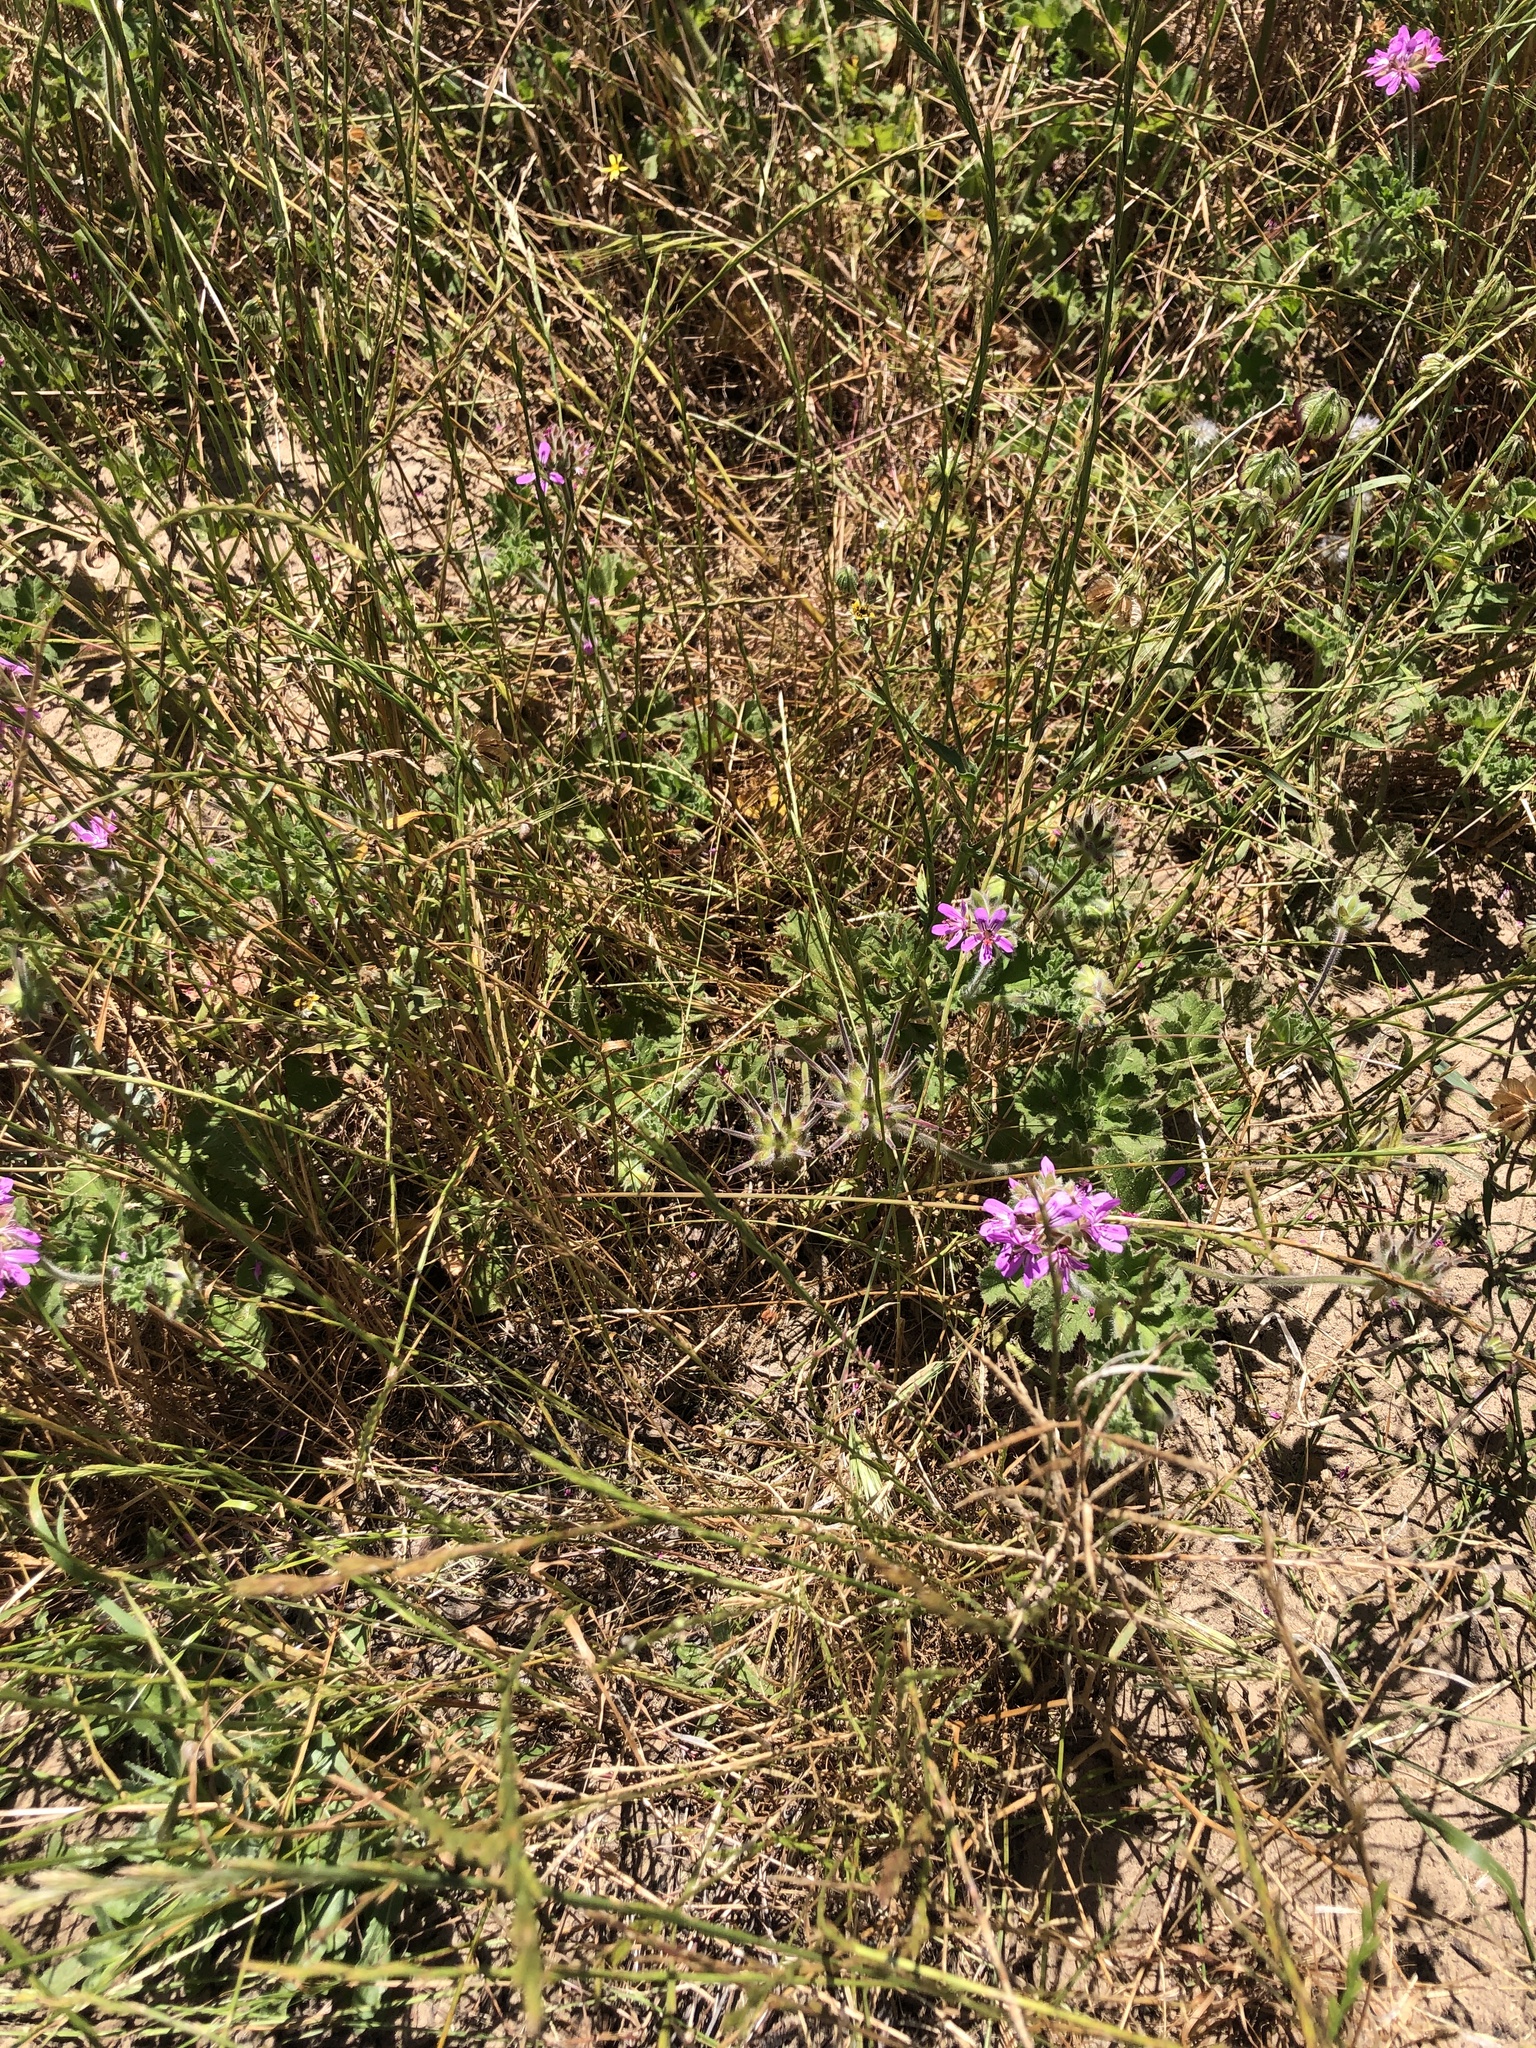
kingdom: Plantae
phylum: Tracheophyta
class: Magnoliopsida
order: Geraniales
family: Geraniaceae
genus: Pelargonium
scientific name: Pelargonium capitatum
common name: Rose scented geranium
